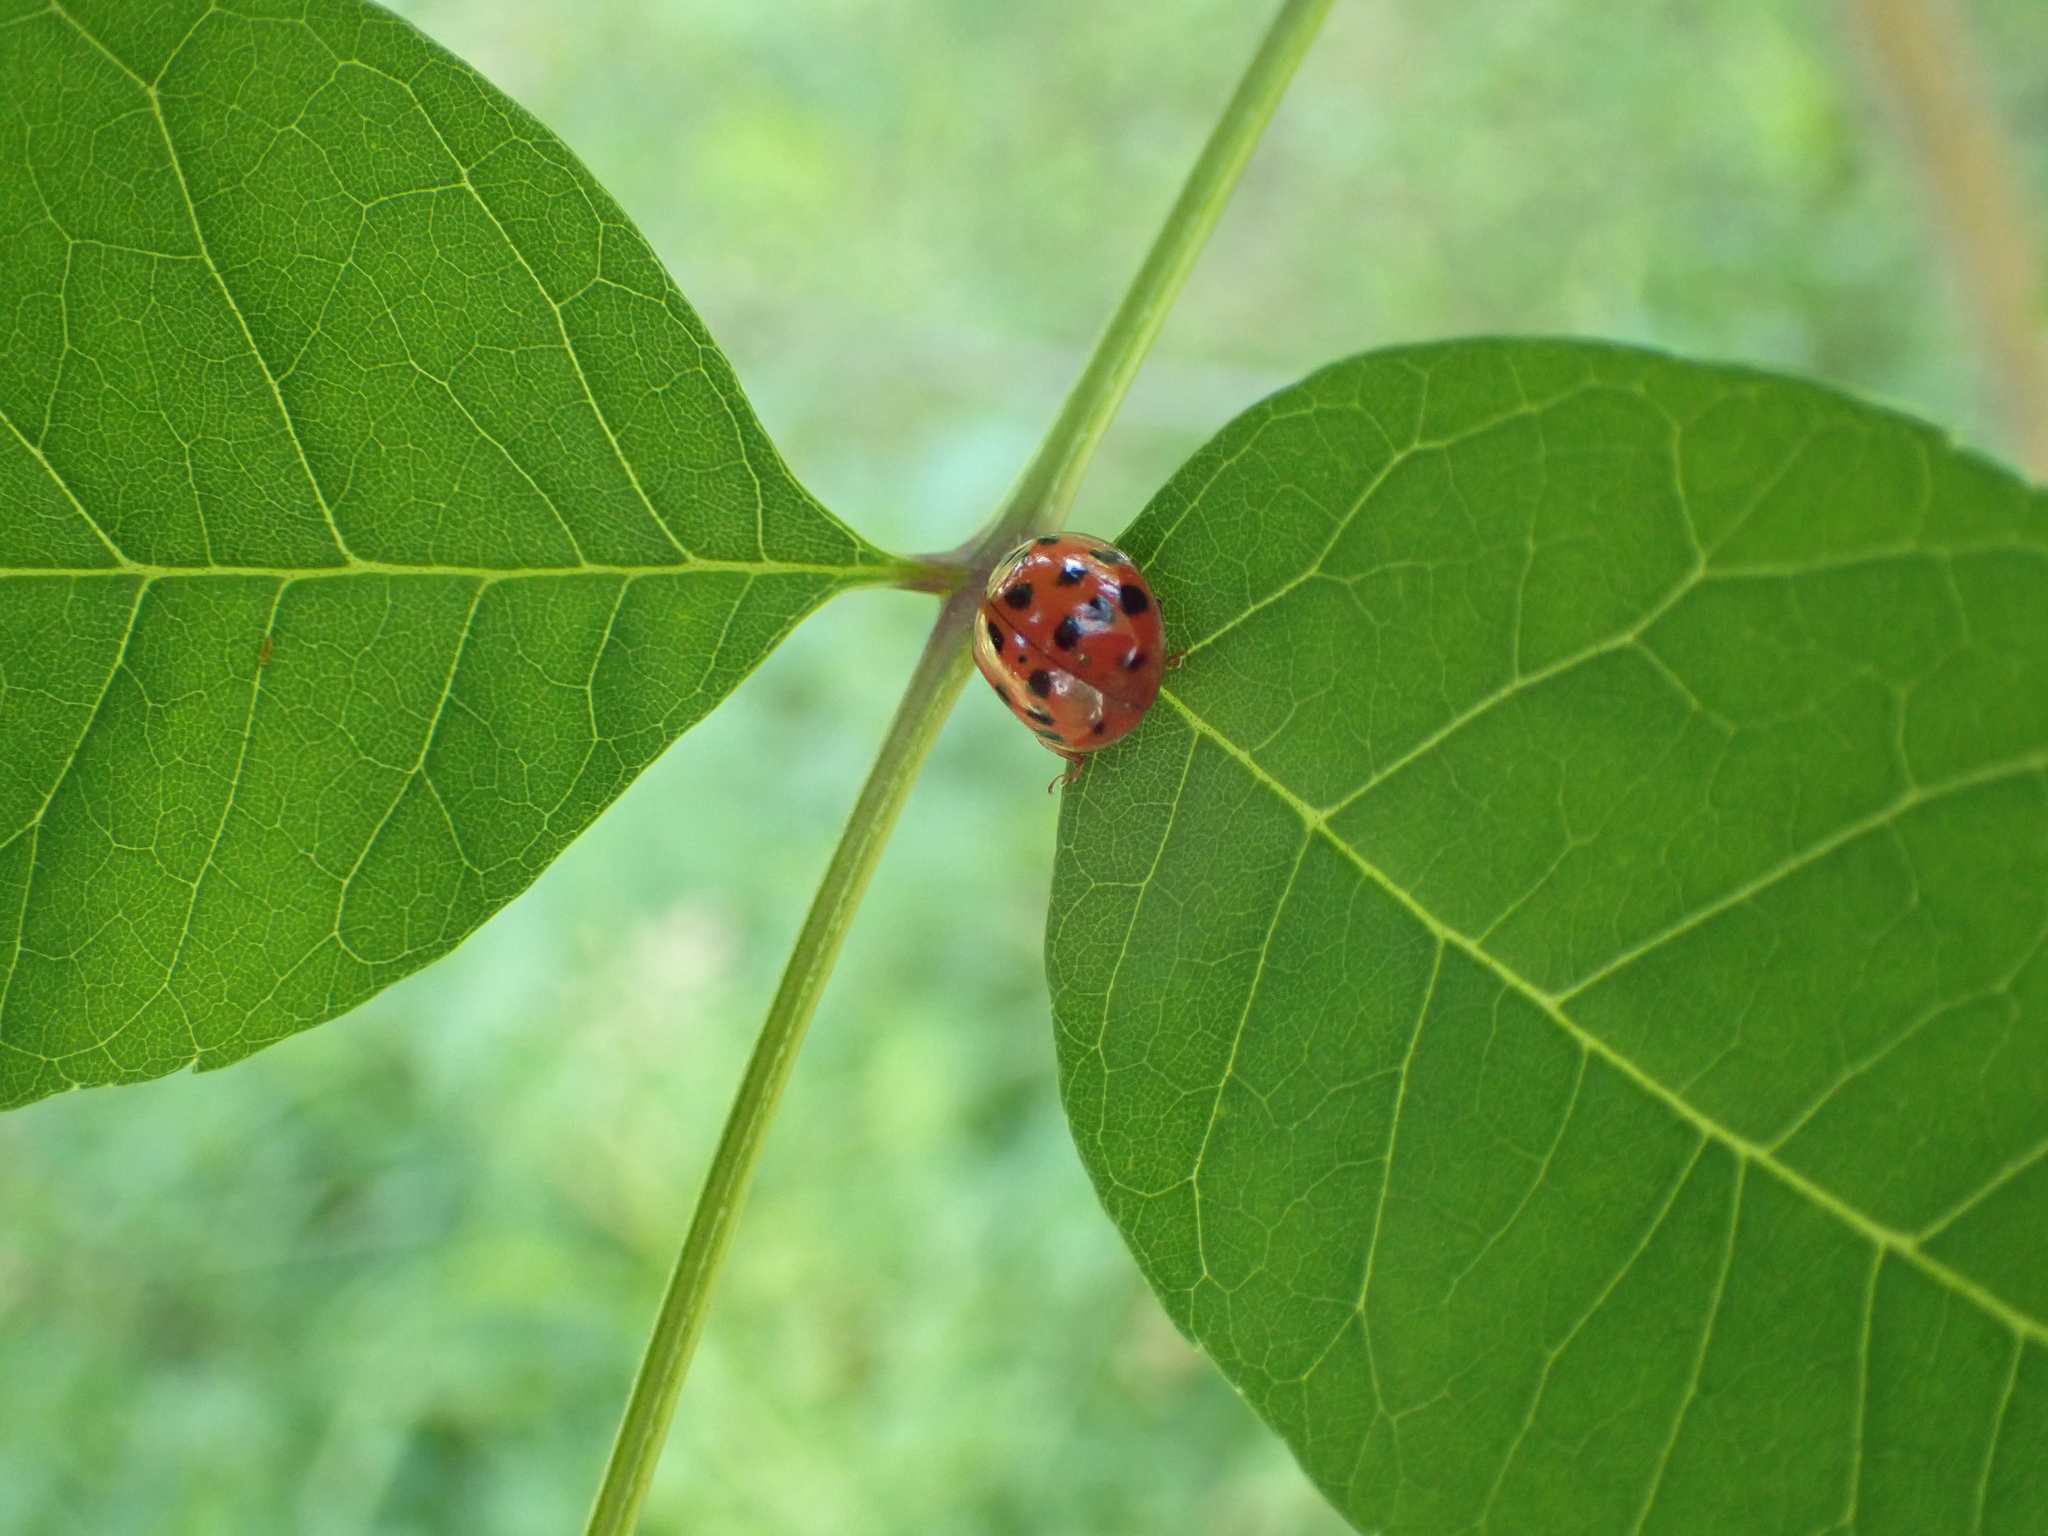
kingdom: Animalia
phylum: Arthropoda
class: Insecta
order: Coleoptera
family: Coccinellidae
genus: Harmonia
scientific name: Harmonia axyridis
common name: Harlequin ladybird
